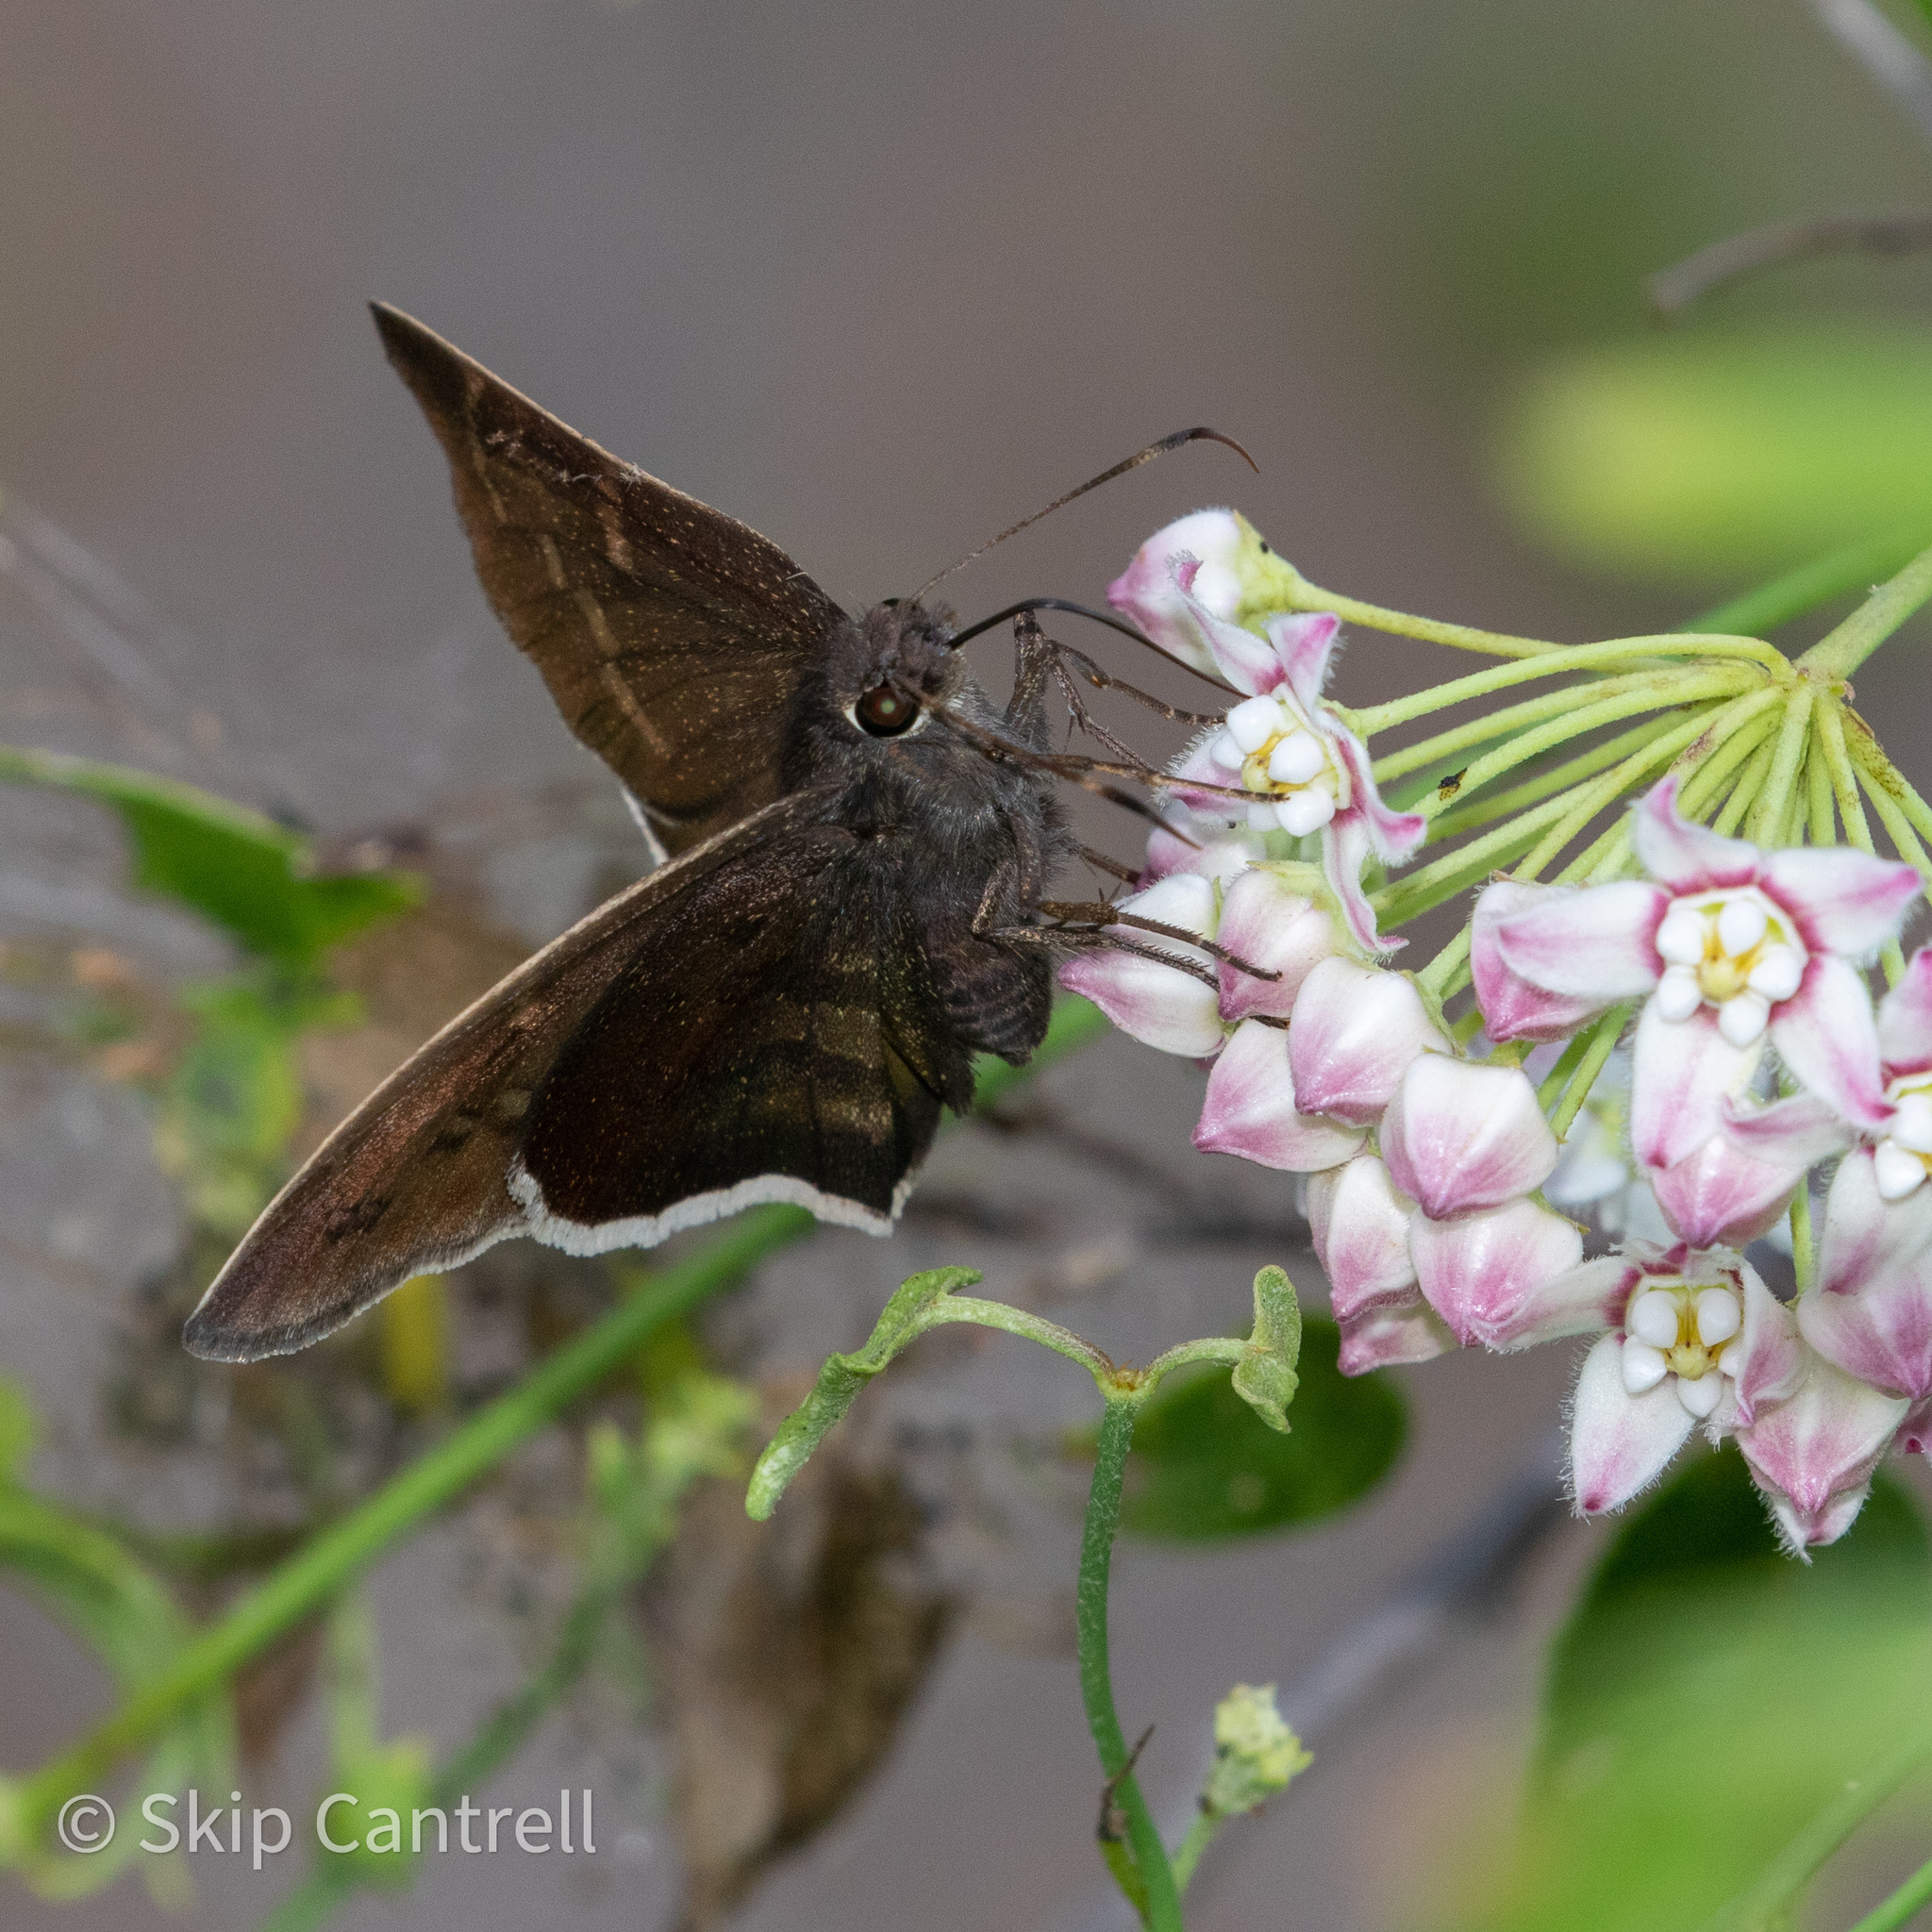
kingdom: Animalia
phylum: Arthropoda
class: Insecta
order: Lepidoptera
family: Hesperiidae
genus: Achalarus
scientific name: Achalarus Murgaria albociliatus
